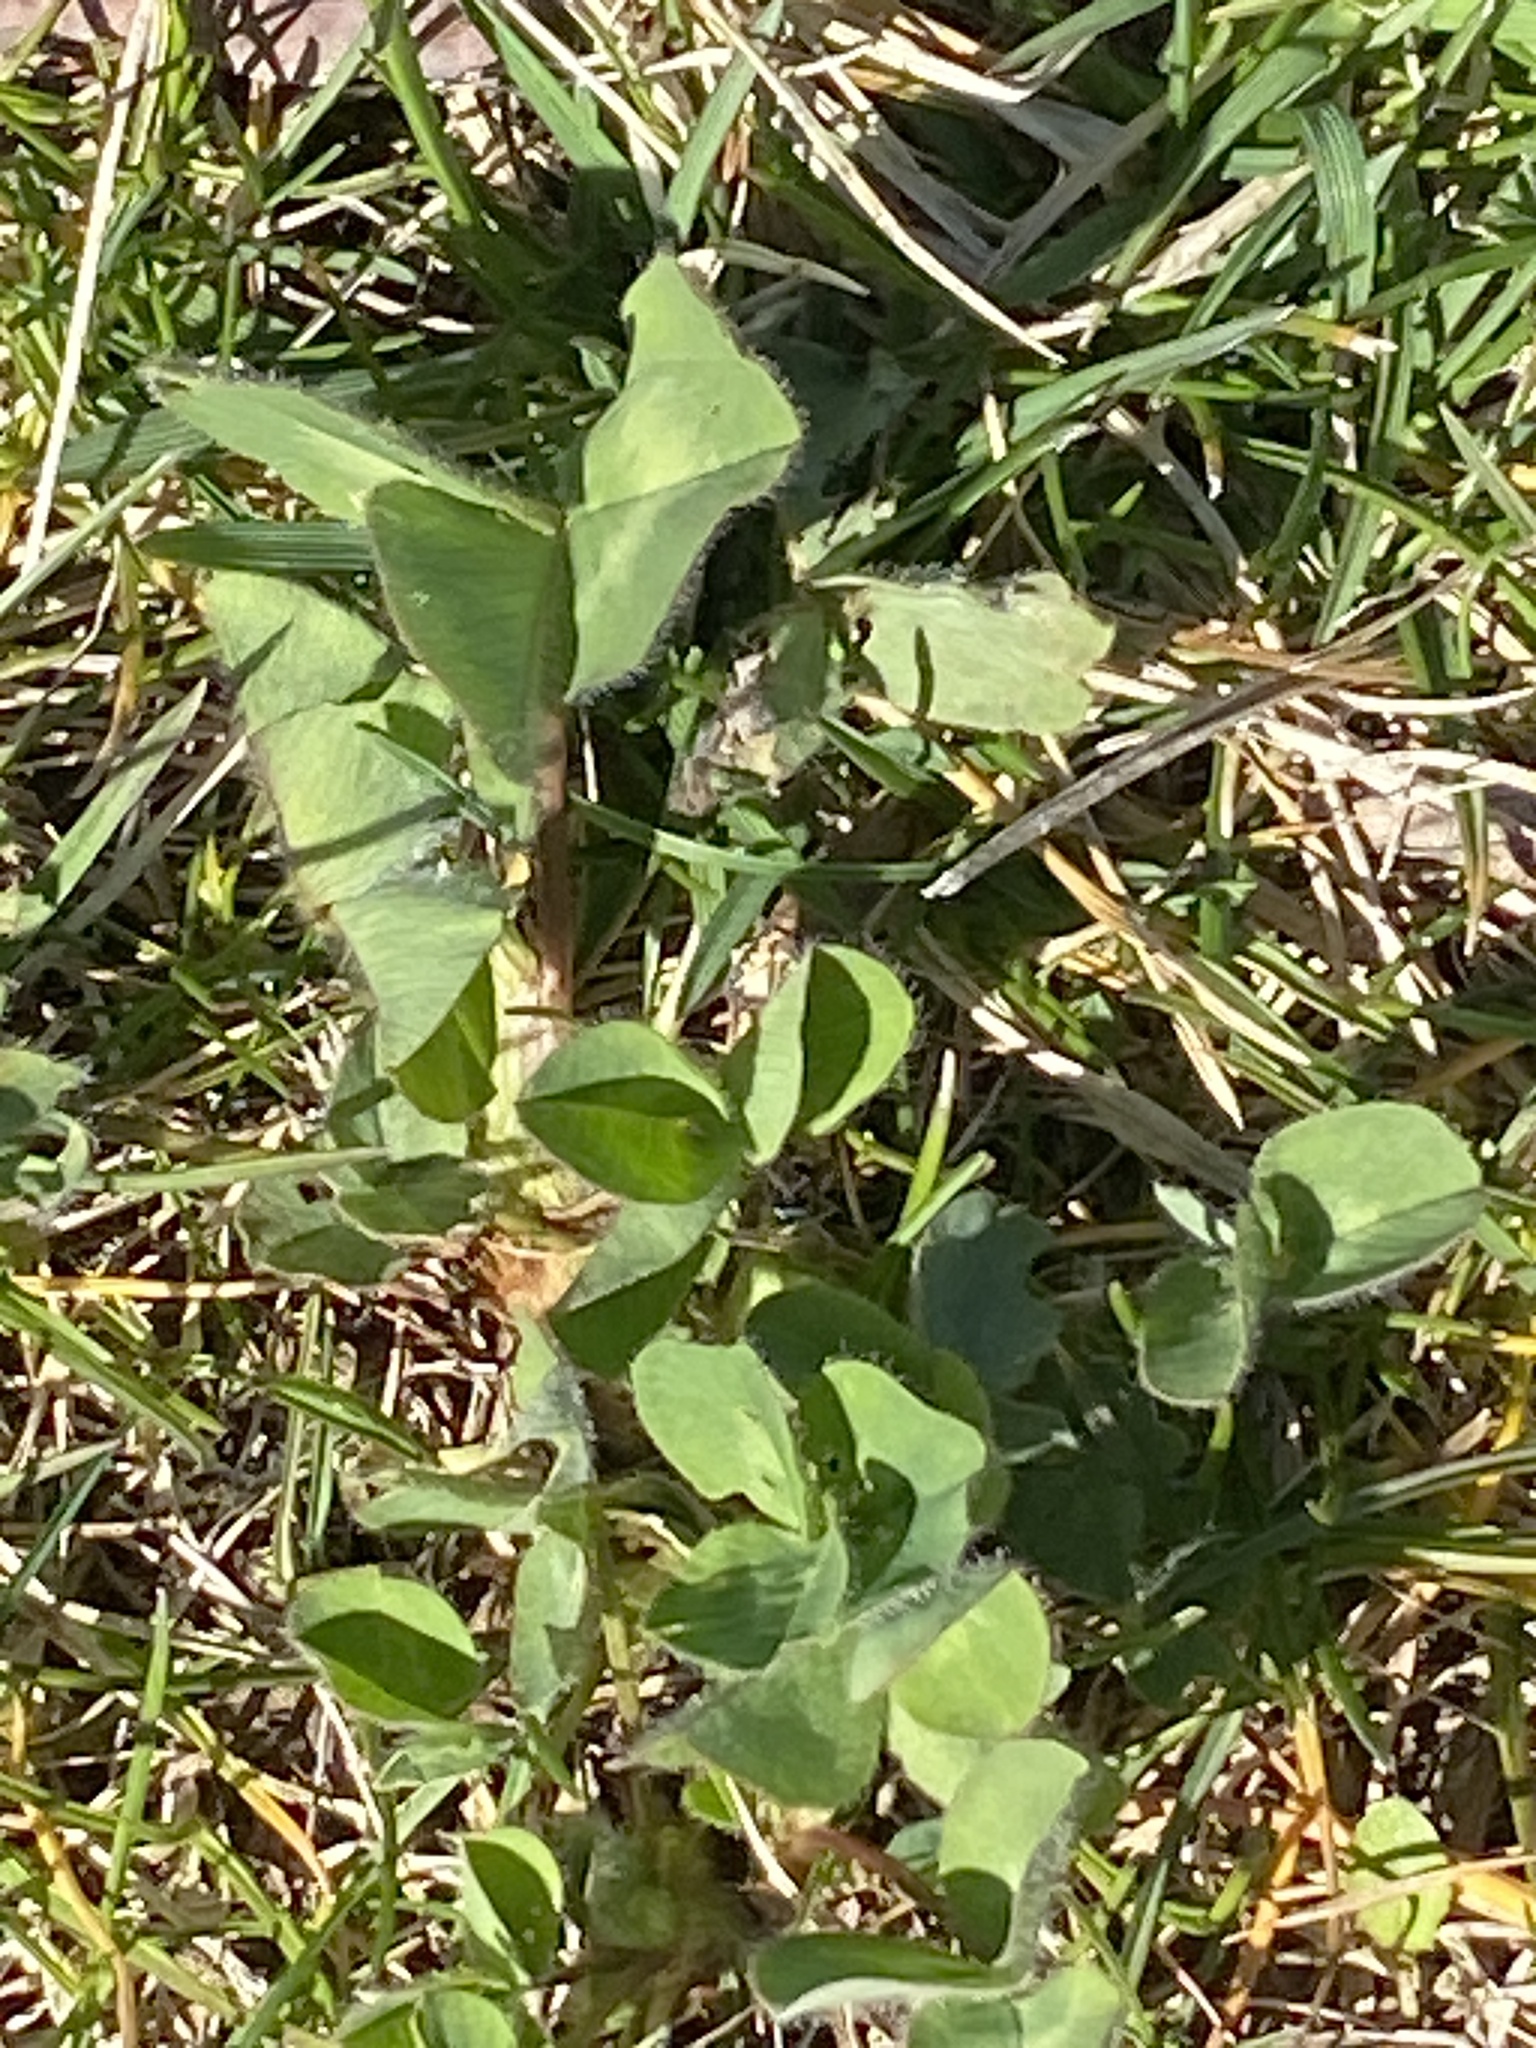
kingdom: Plantae
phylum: Tracheophyta
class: Magnoliopsida
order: Fabales
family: Fabaceae
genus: Trifolium
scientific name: Trifolium pratense
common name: Red clover
